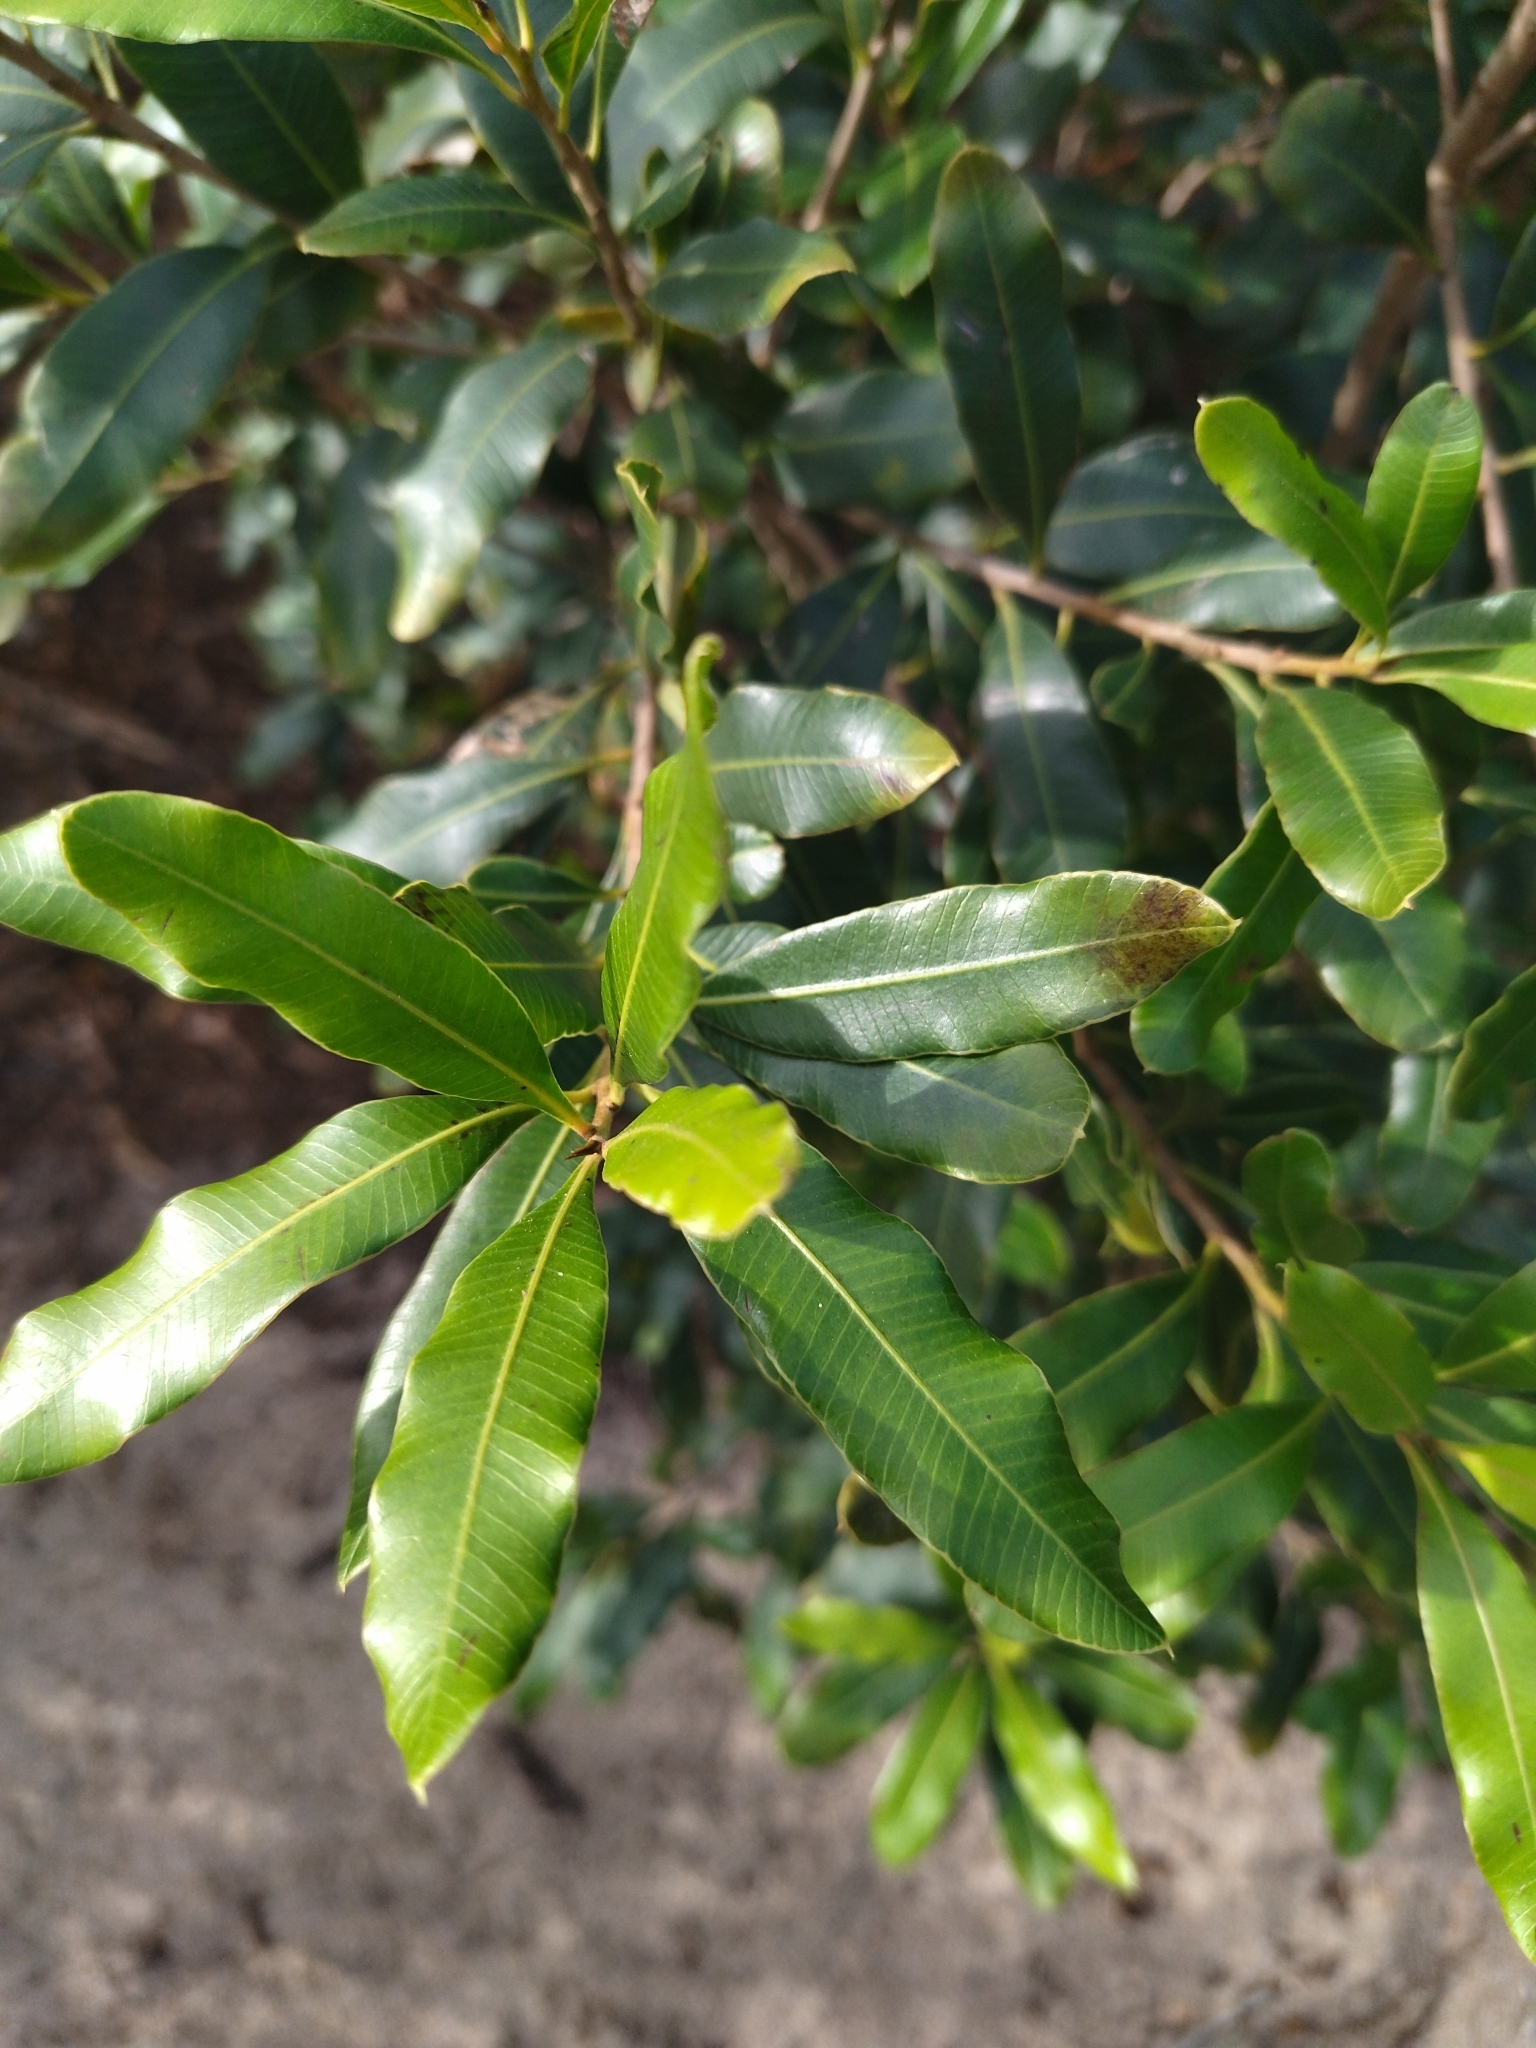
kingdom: Plantae
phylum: Tracheophyta
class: Magnoliopsida
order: Sapindales
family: Anacardiaceae
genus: Lithraea
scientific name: Lithraea brasiliensis
